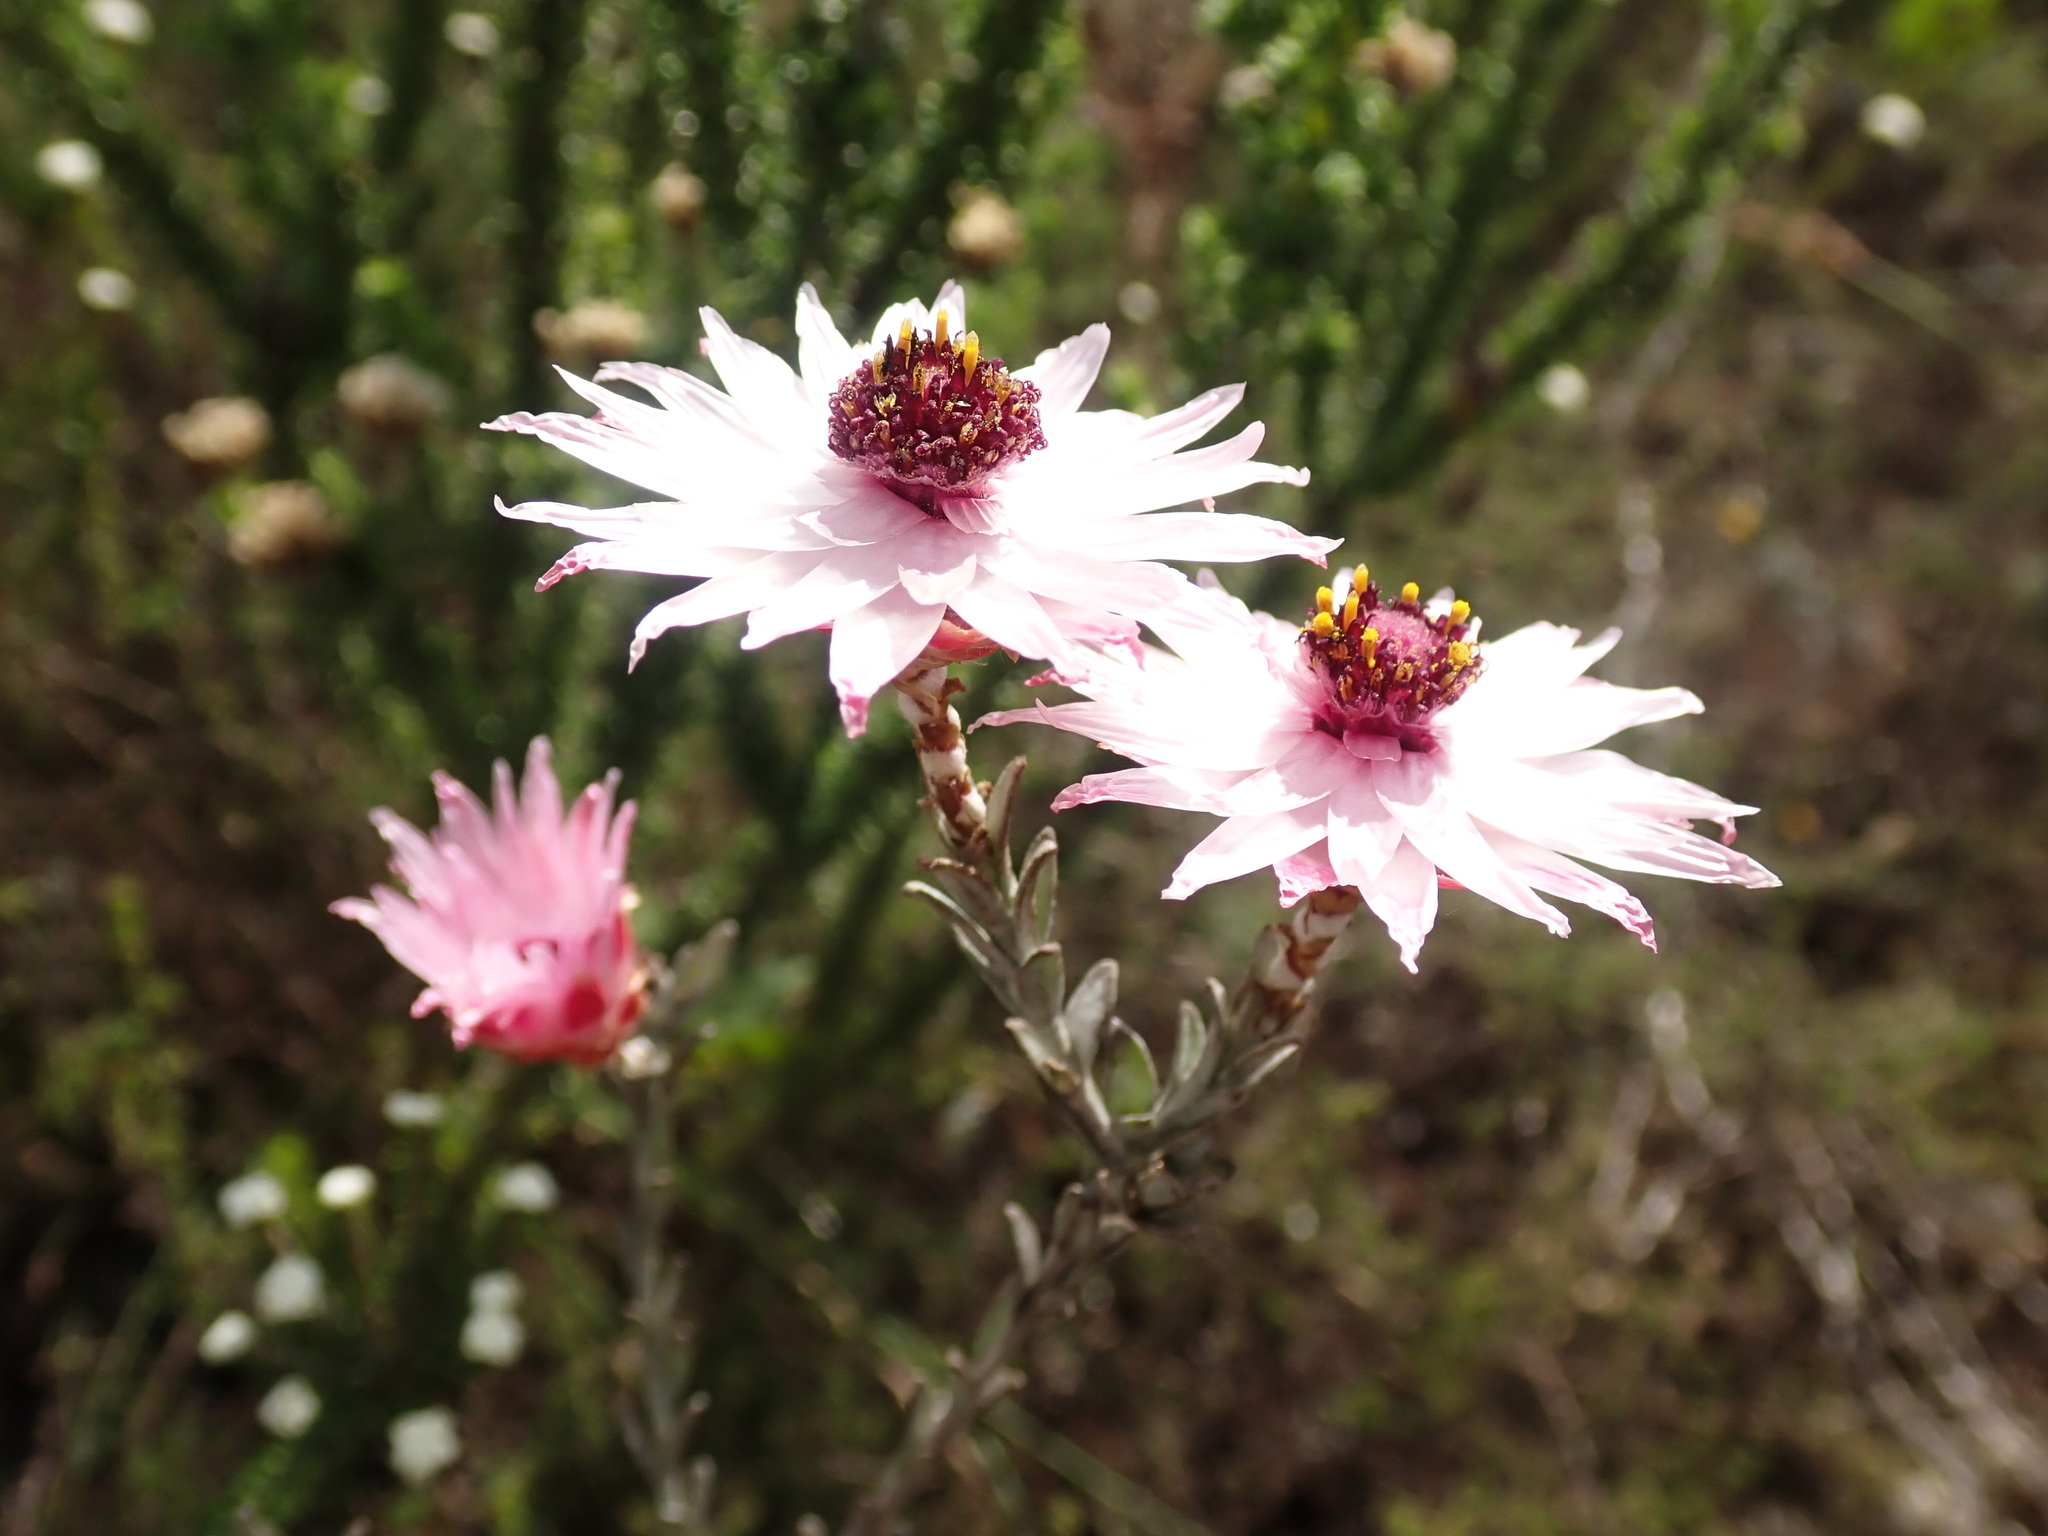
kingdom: Plantae
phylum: Tracheophyta
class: Magnoliopsida
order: Asterales
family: Asteraceae
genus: Syncarpha
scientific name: Syncarpha canescens
